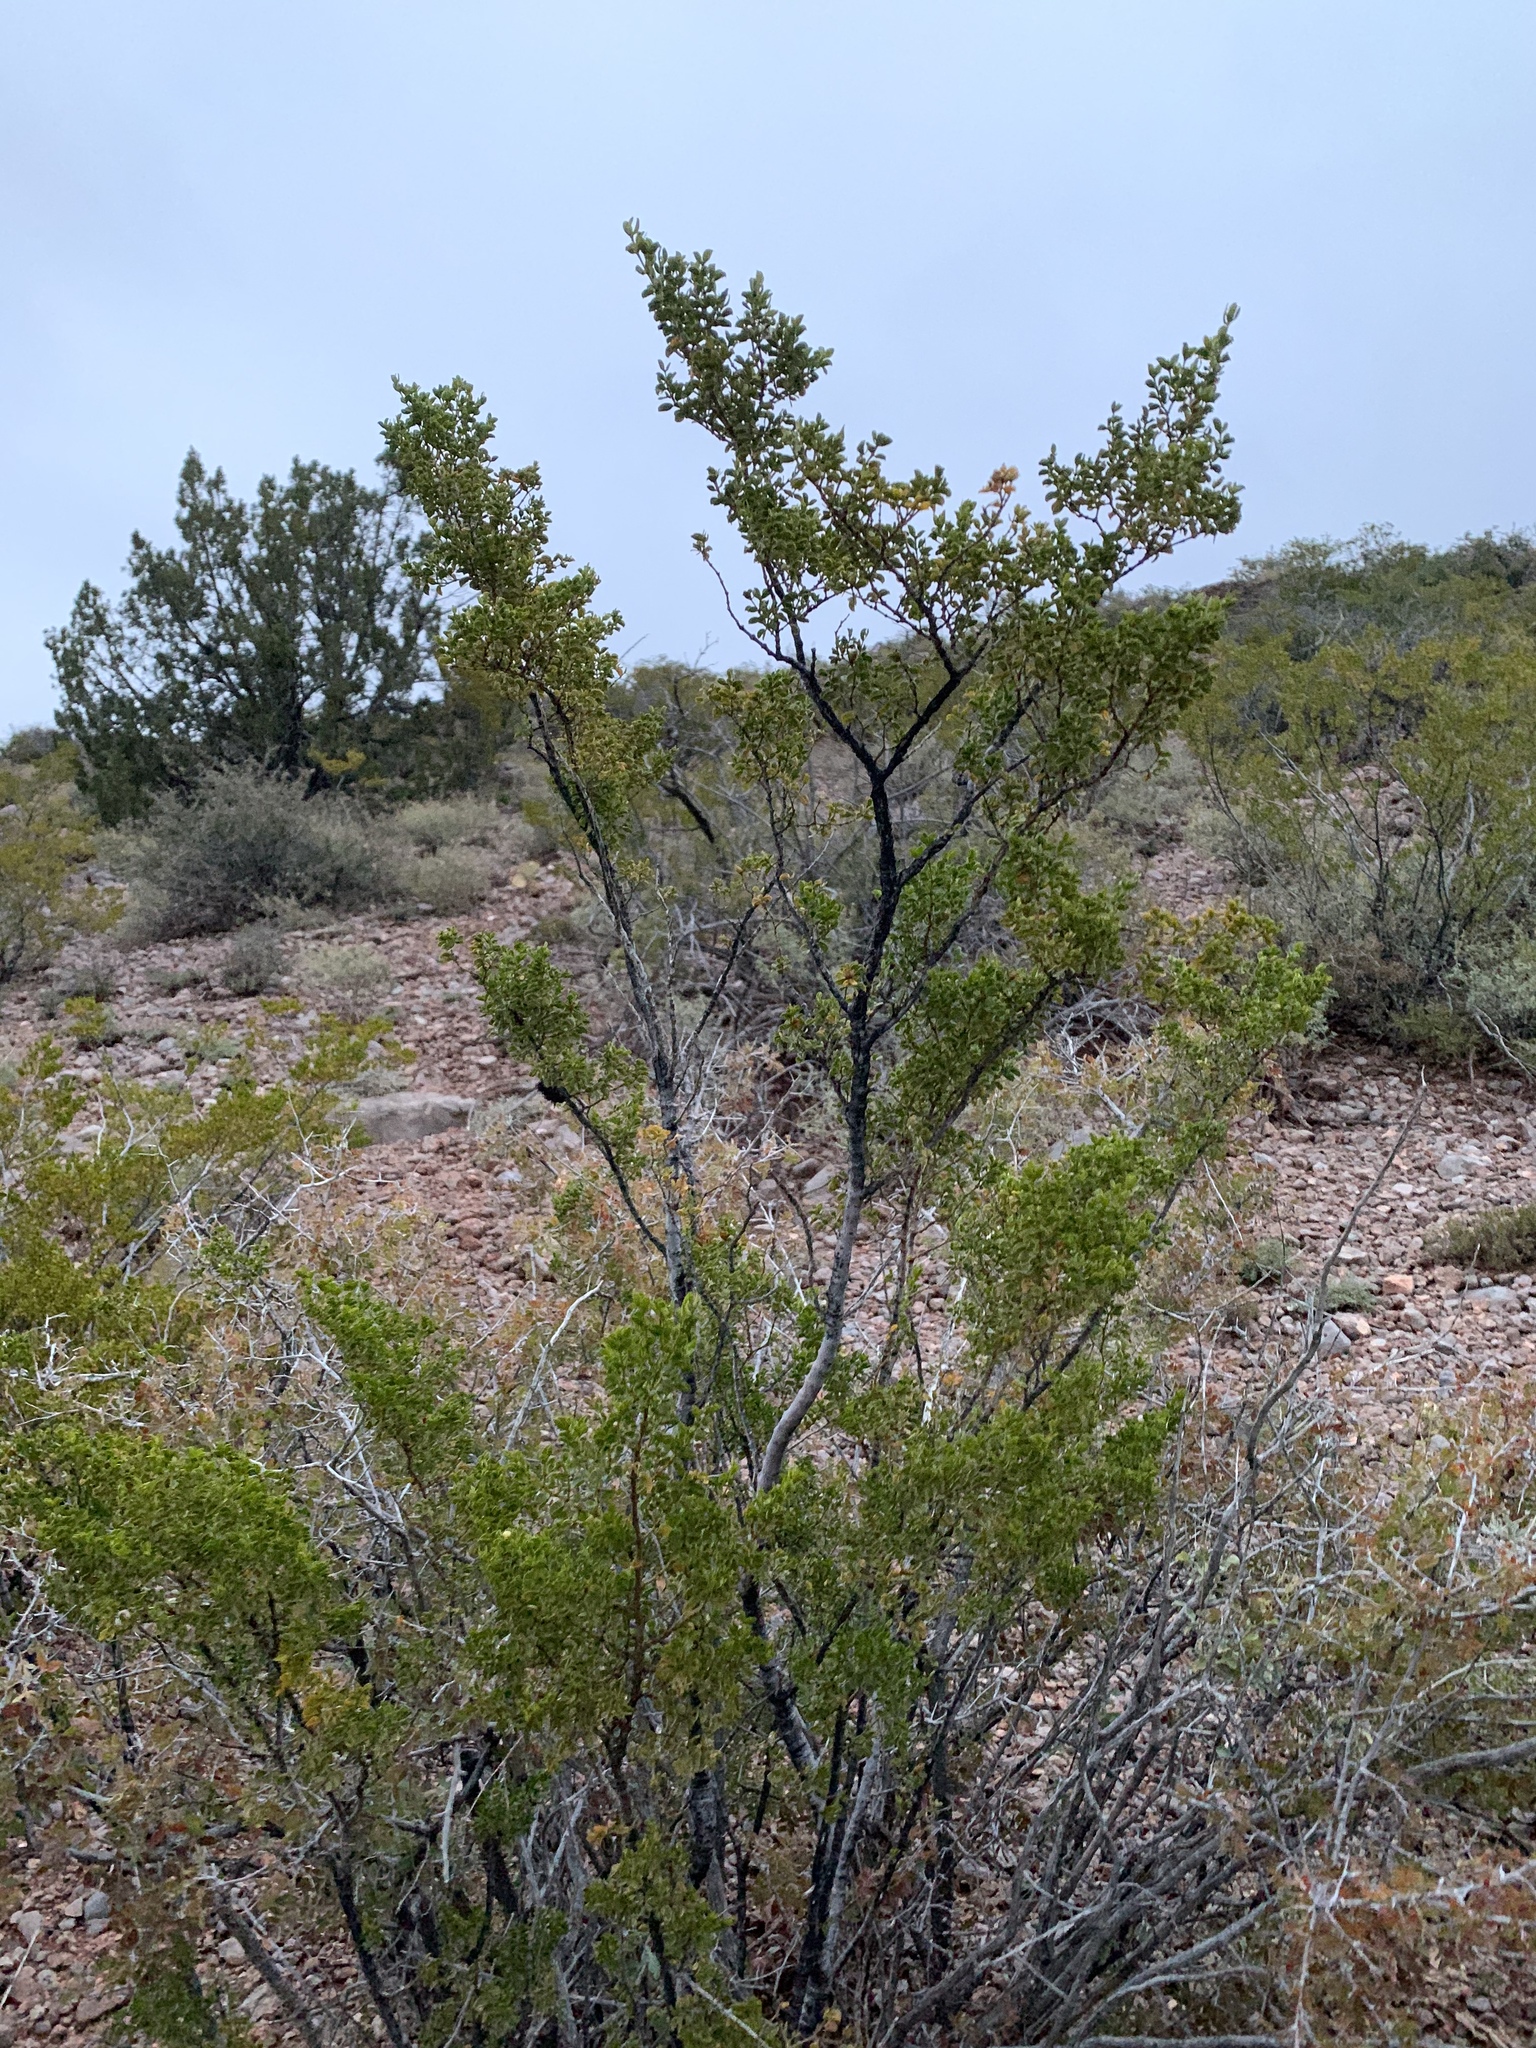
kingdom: Plantae
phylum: Tracheophyta
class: Magnoliopsida
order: Zygophyllales
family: Zygophyllaceae
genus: Larrea
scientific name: Larrea tridentata
